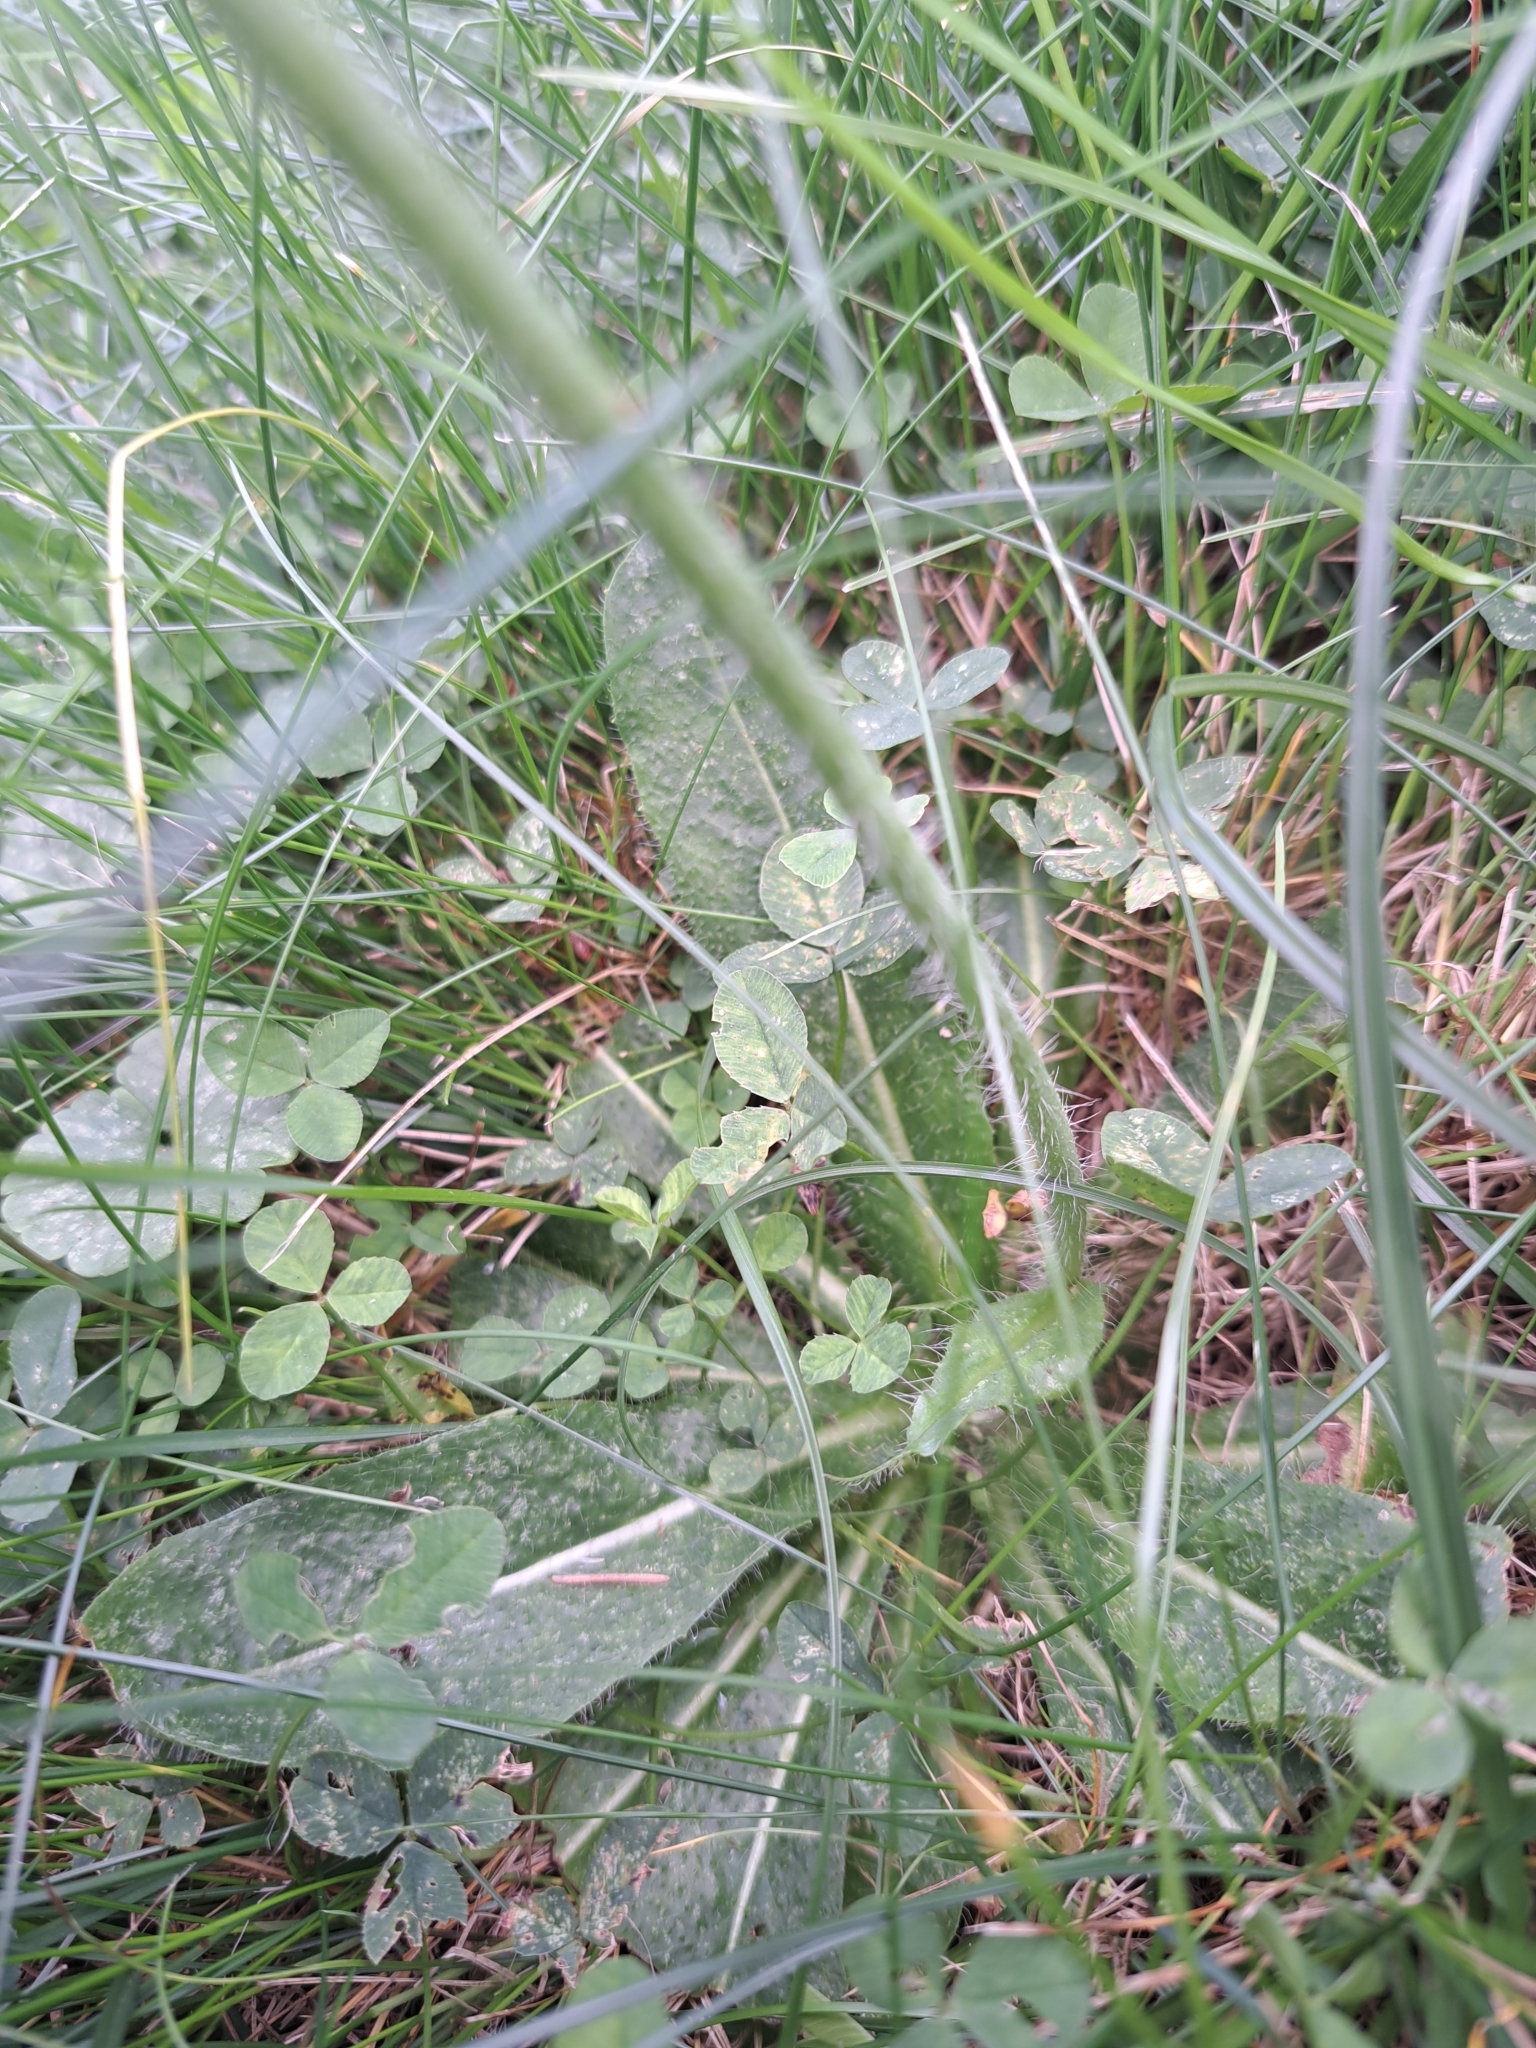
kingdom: Plantae
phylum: Tracheophyta
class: Magnoliopsida
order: Asterales
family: Asteraceae
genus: Pilosella
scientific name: Pilosella aurantiaca
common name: Fox-and-cubs
